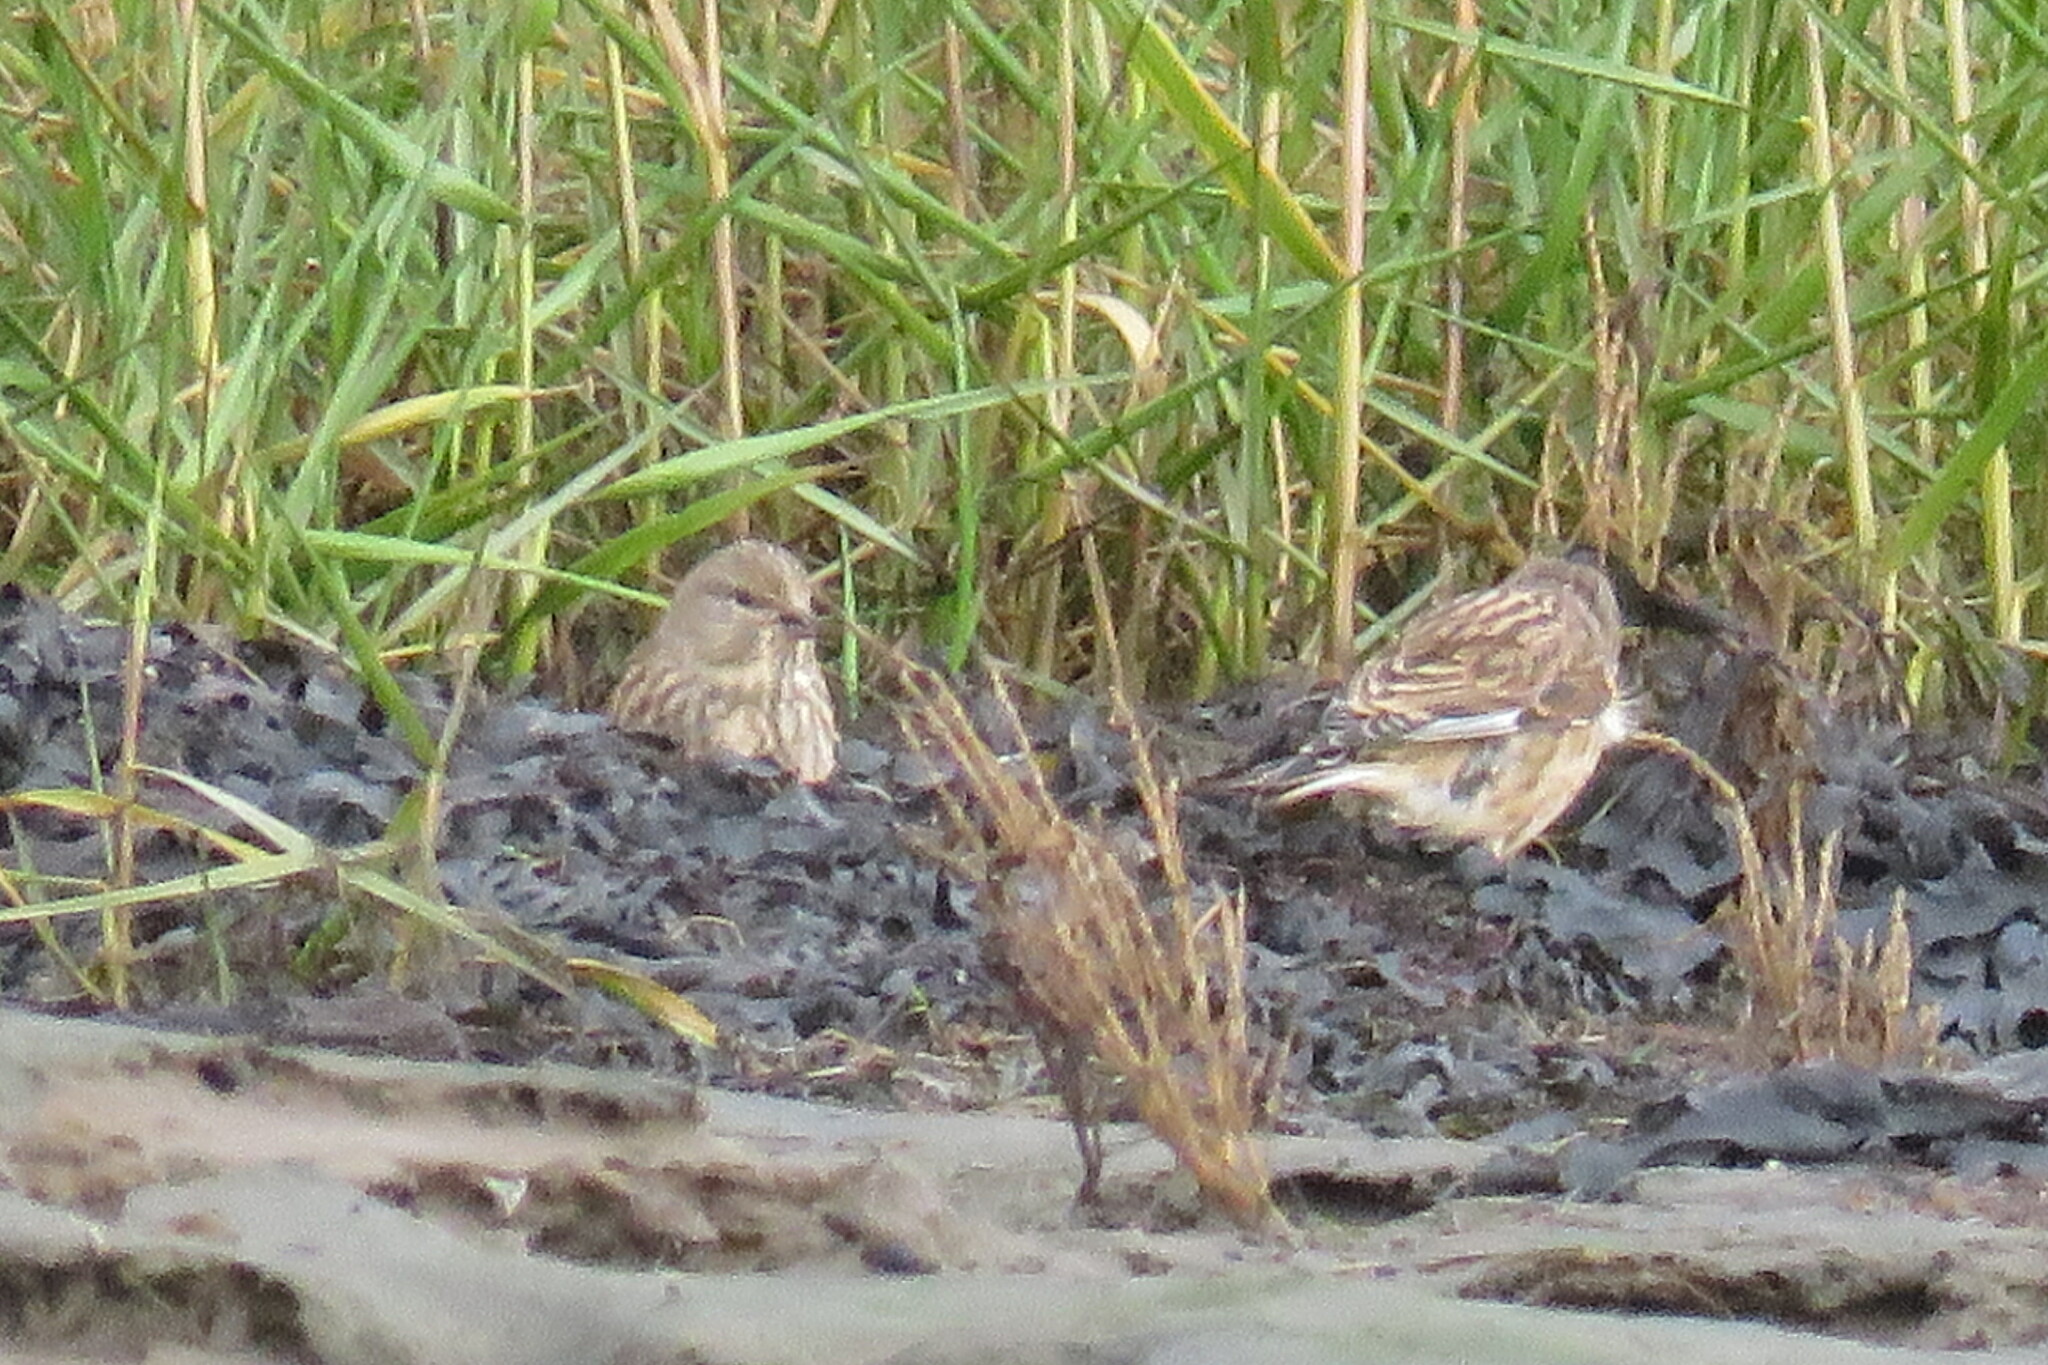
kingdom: Animalia
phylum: Chordata
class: Aves
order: Passeriformes
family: Fringillidae
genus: Linaria
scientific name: Linaria cannabina
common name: Common linnet
